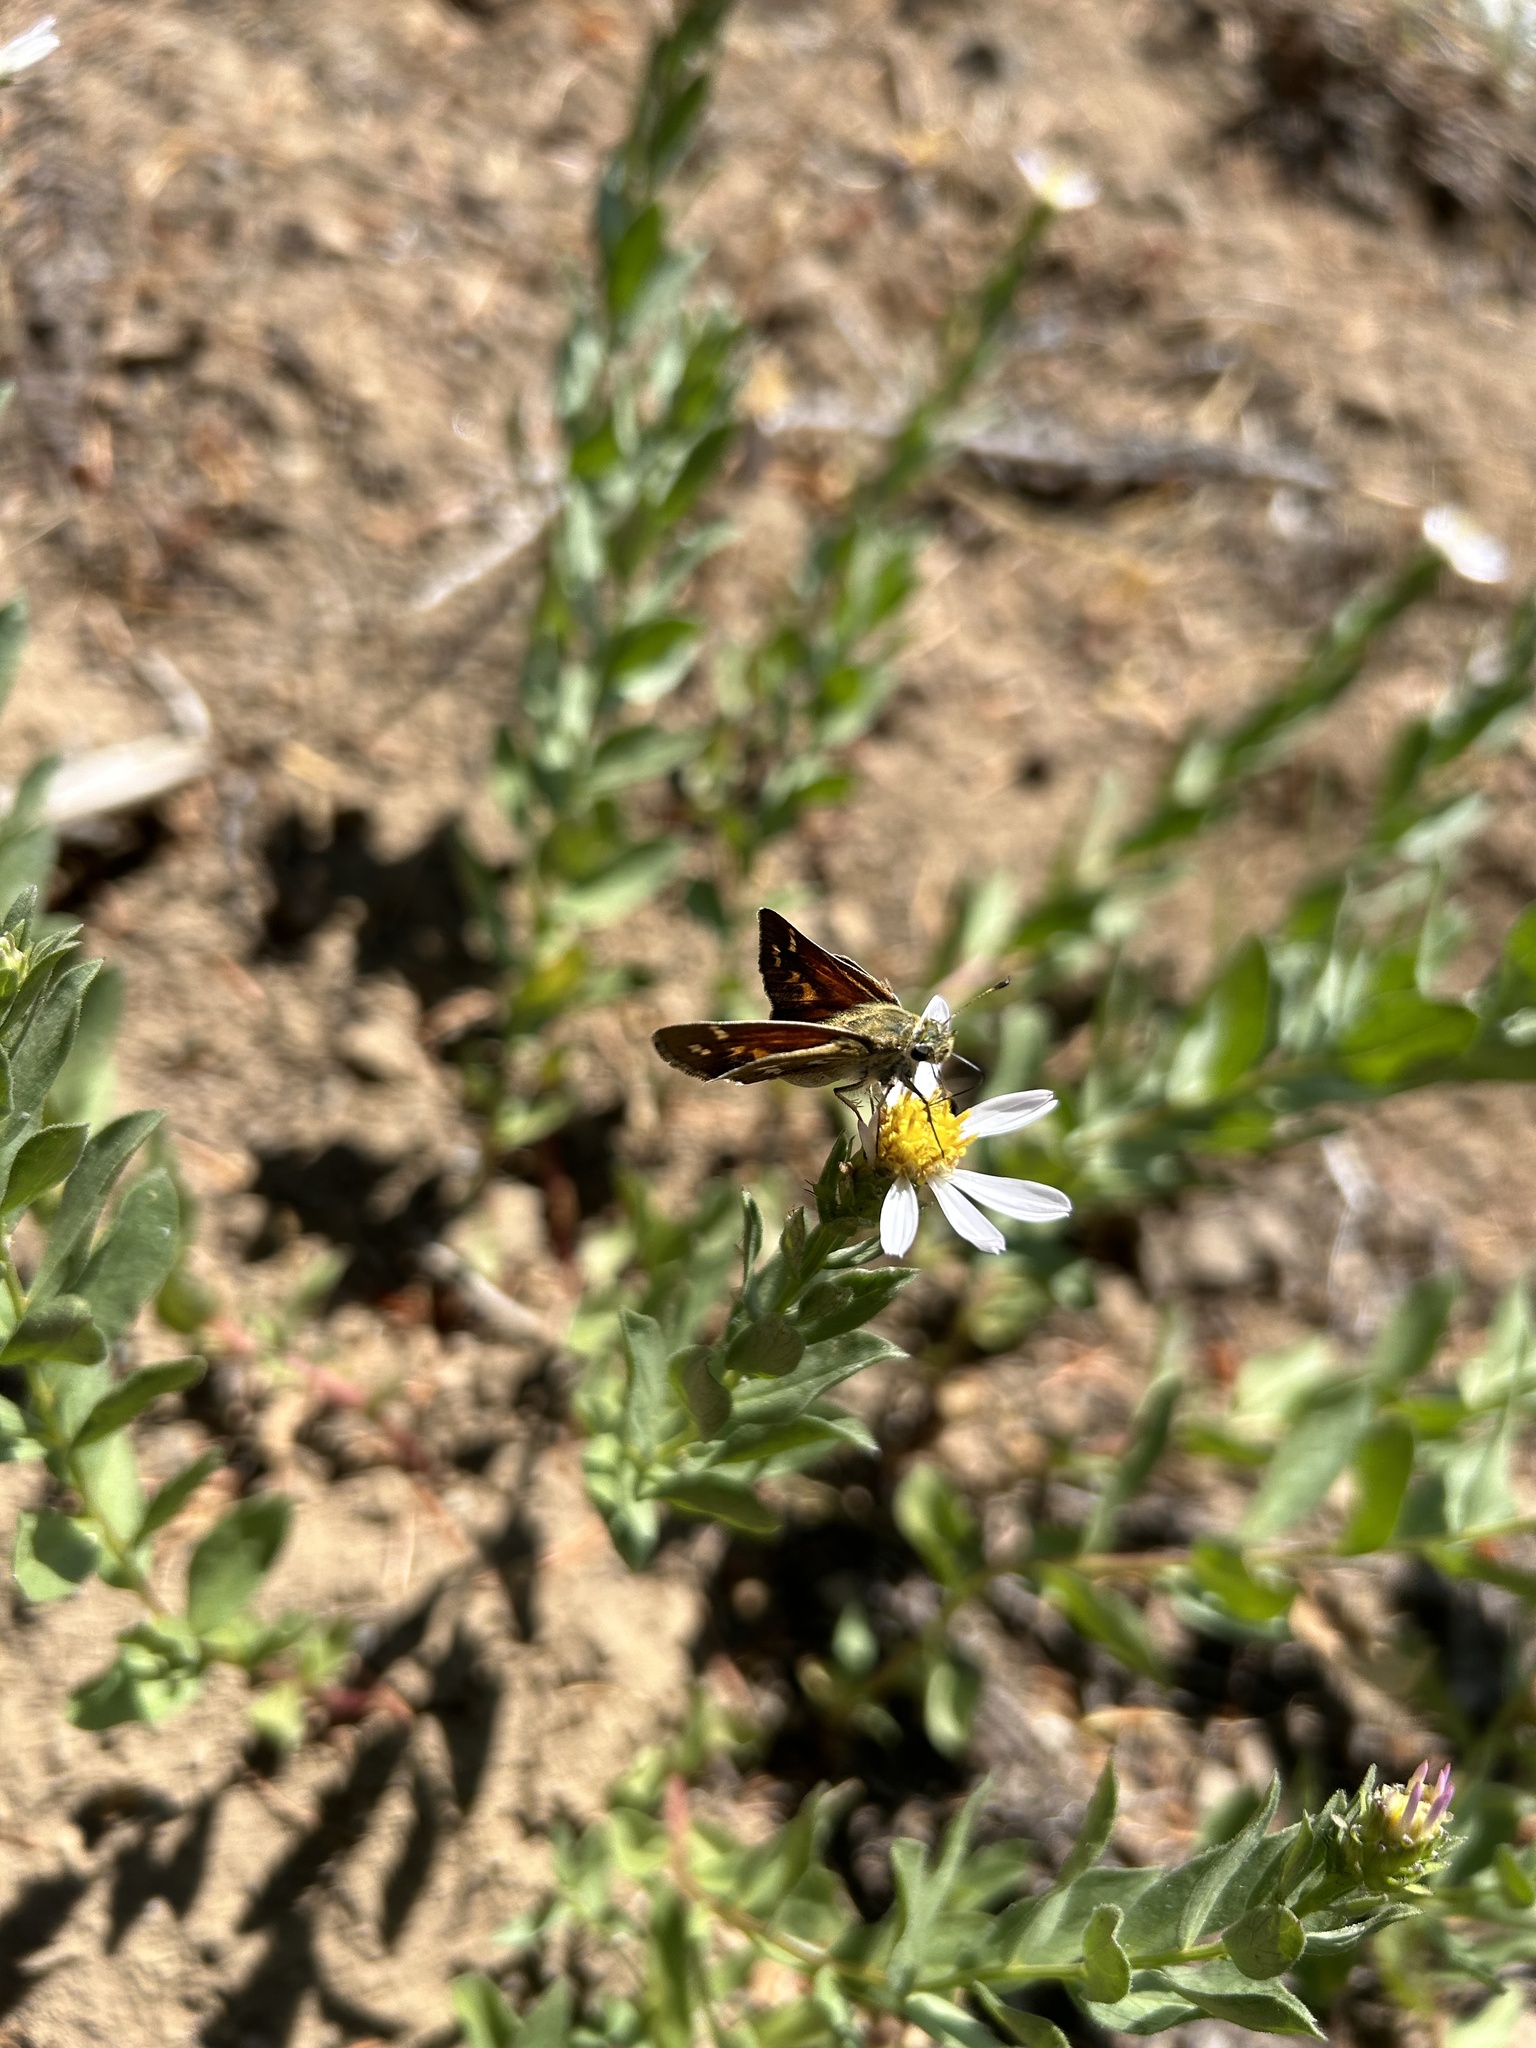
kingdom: Plantae
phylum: Tracheophyta
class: Magnoliopsida
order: Asterales
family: Asteraceae
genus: Eucephalus
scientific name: Eucephalus gormanii
